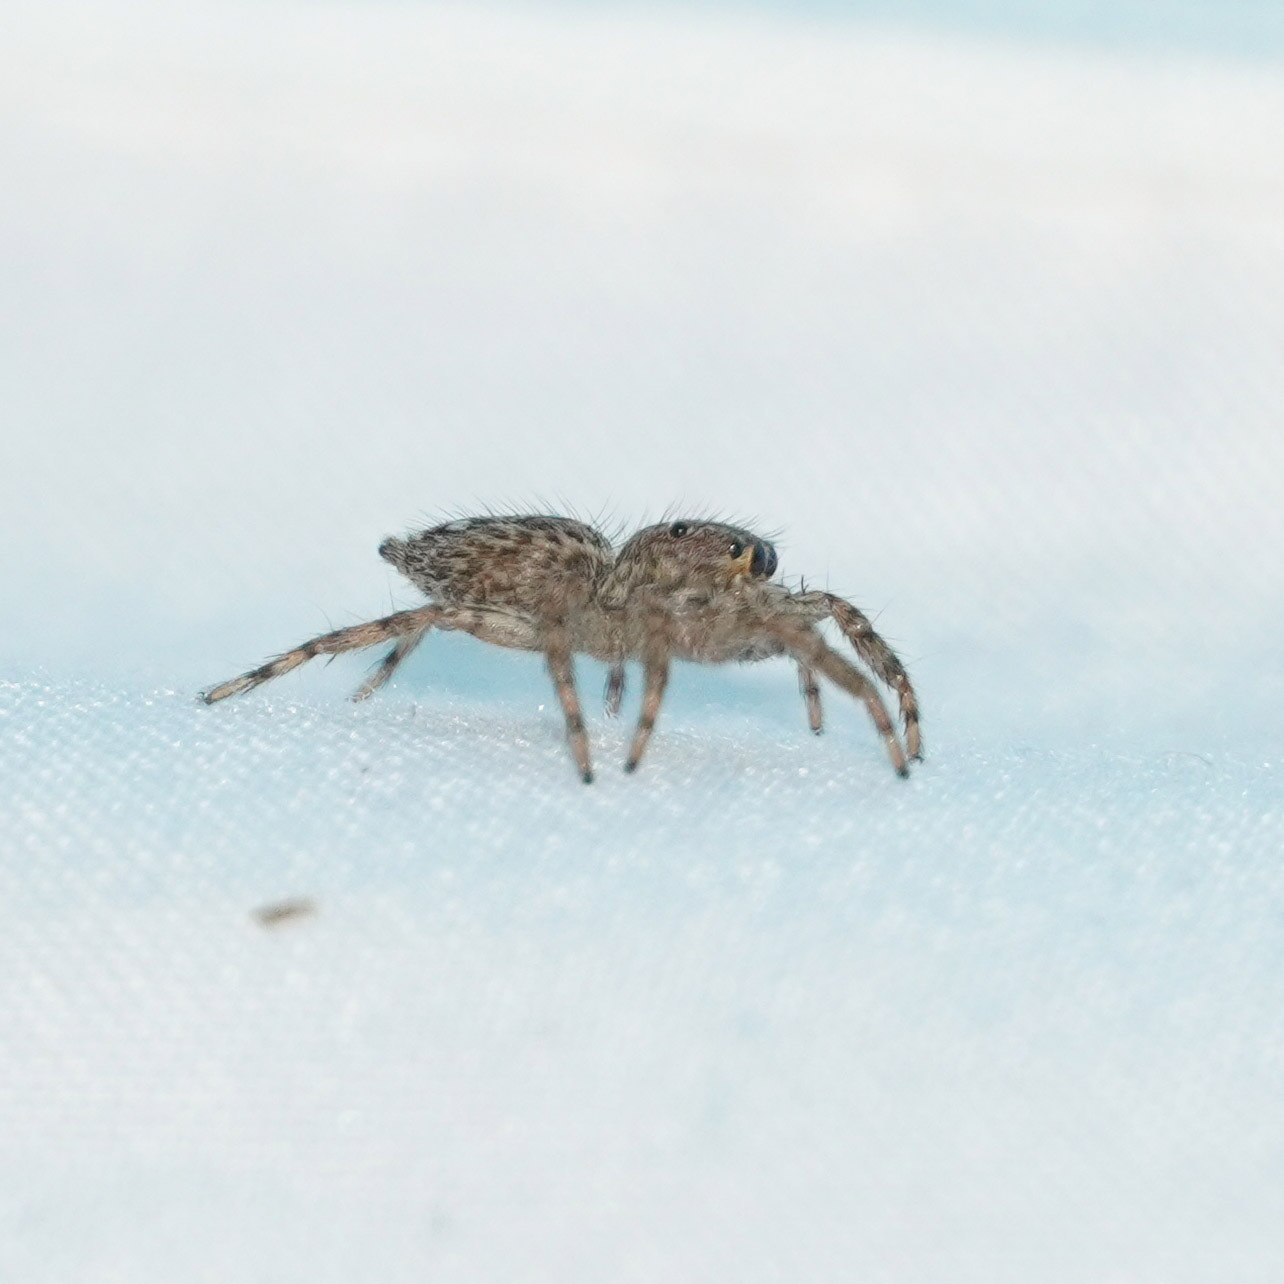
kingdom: Animalia
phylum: Arthropoda
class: Arachnida
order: Araneae
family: Salticidae
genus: Plexippus
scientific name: Plexippus petersi
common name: Jumping spider
